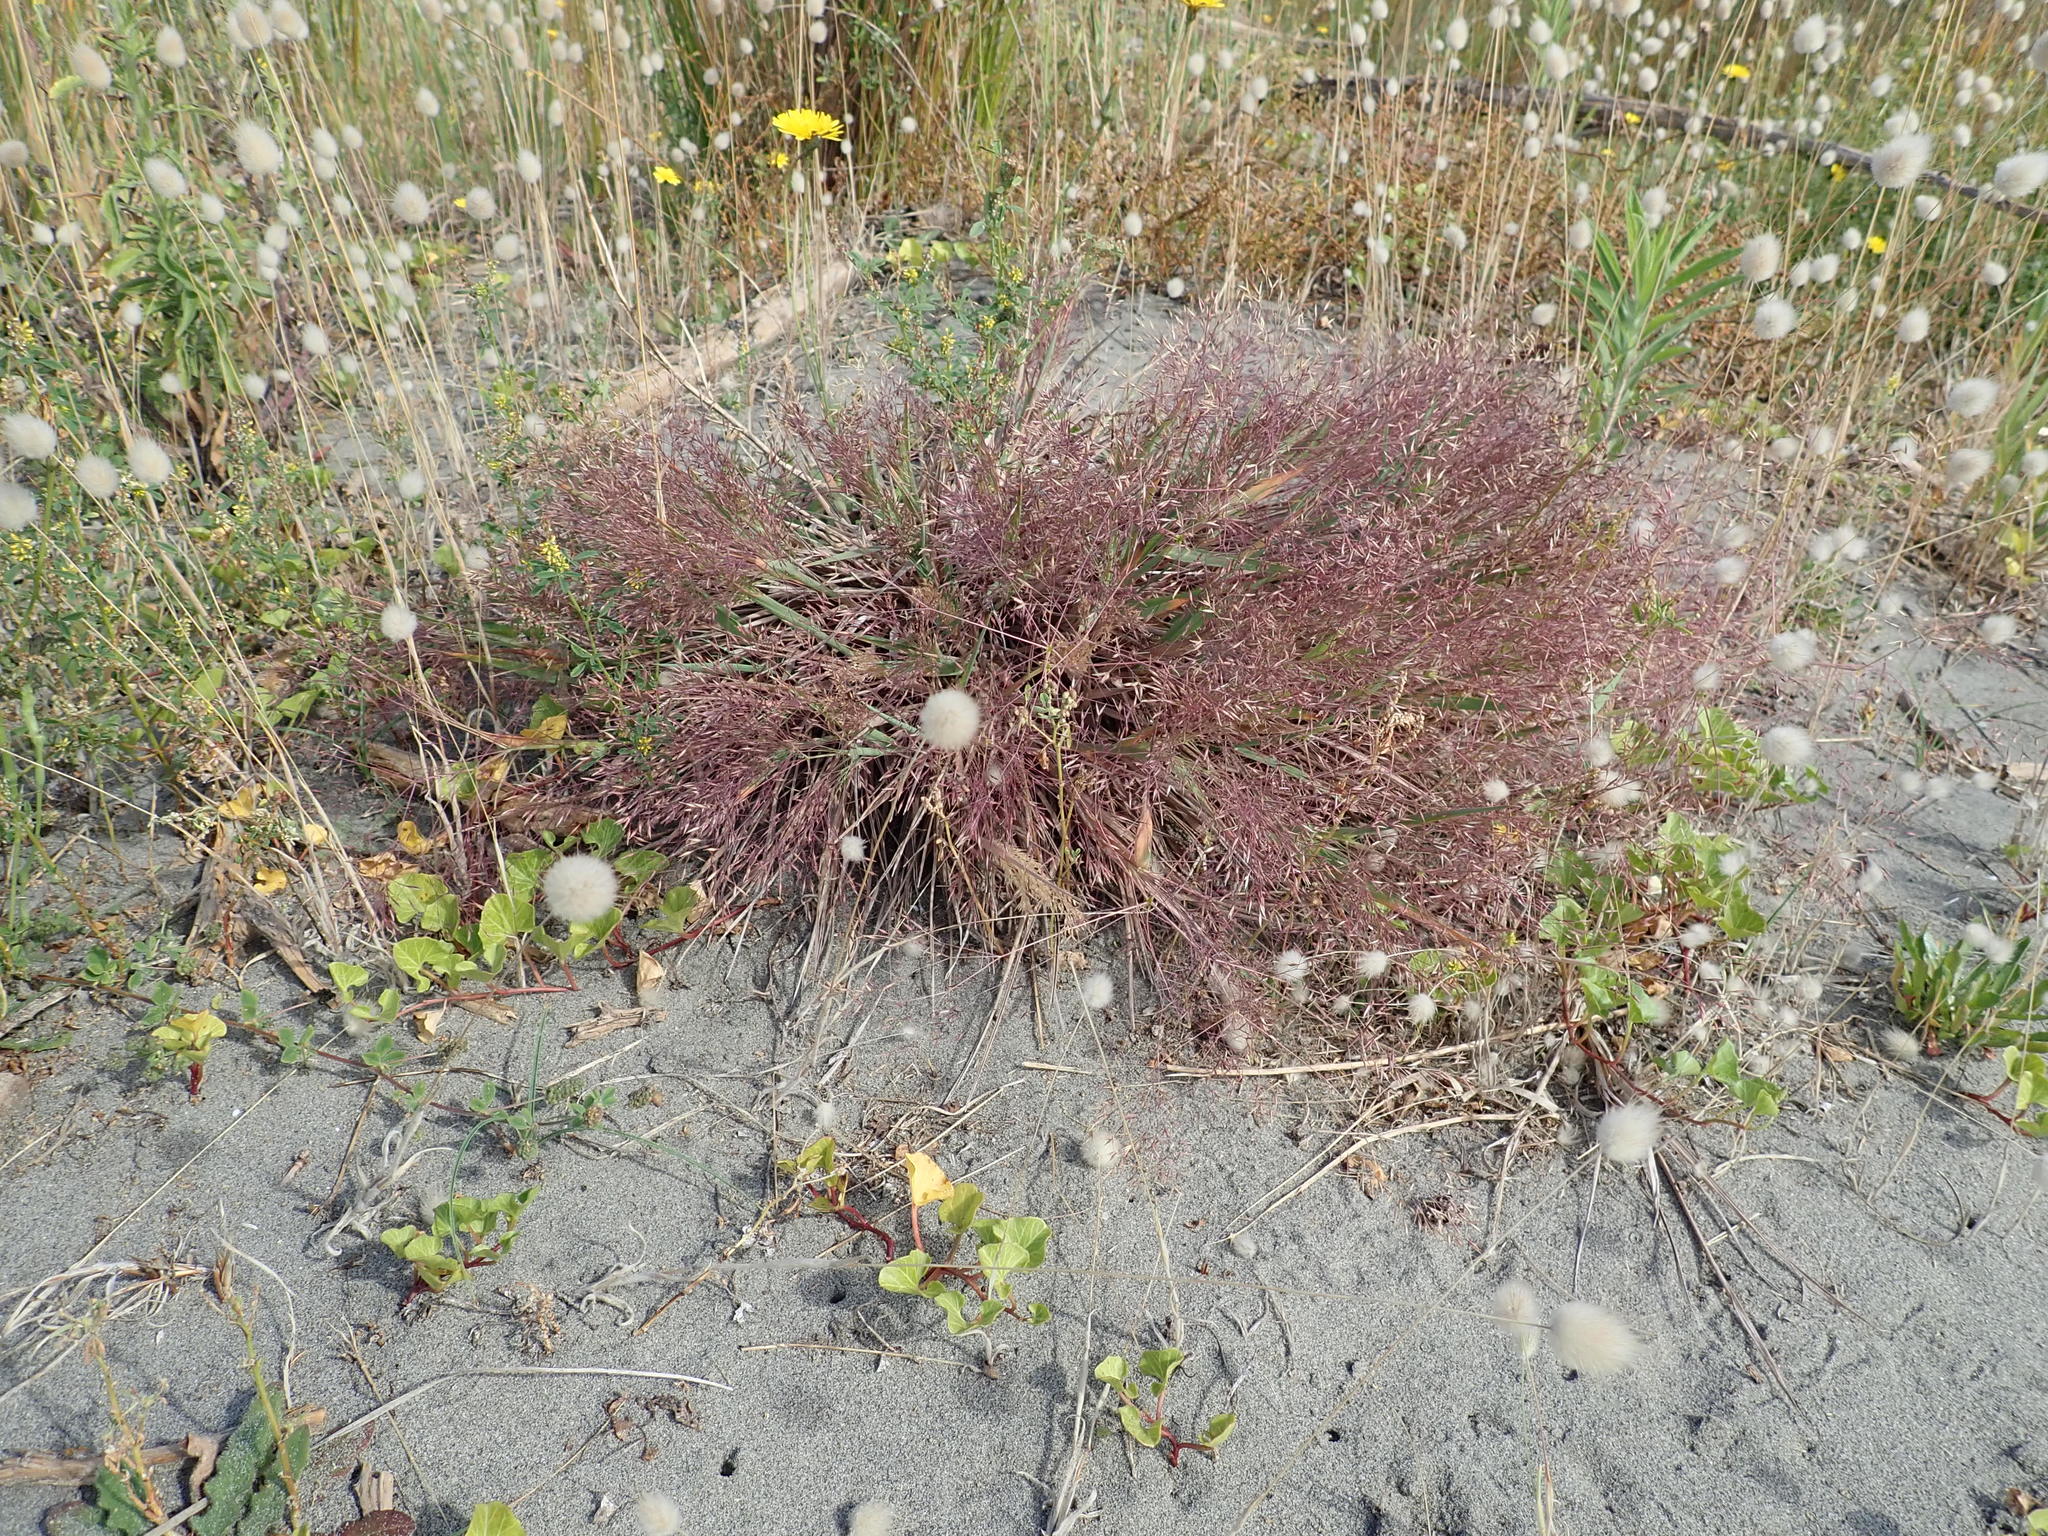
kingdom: Plantae
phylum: Tracheophyta
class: Liliopsida
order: Poales
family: Poaceae
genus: Lachnagrostis
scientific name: Lachnagrostis billardierei
